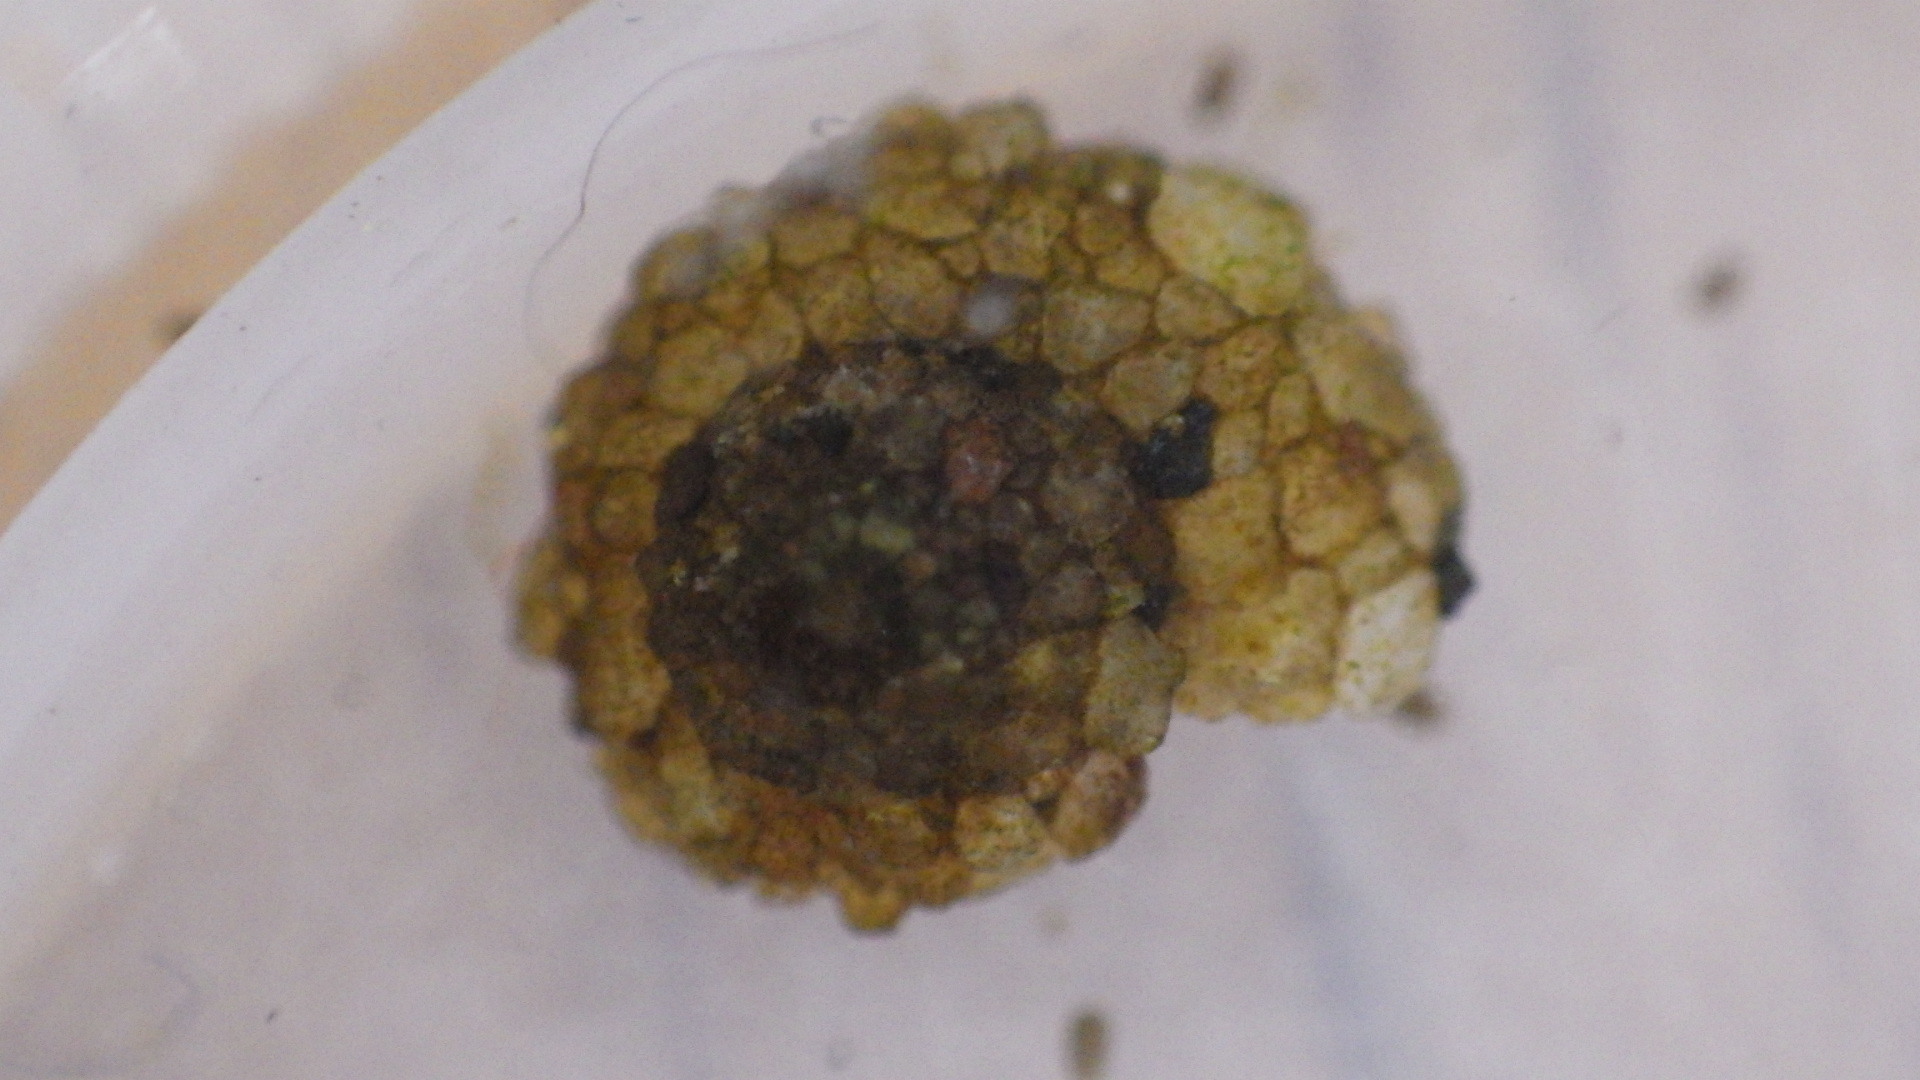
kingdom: Animalia
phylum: Arthropoda
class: Insecta
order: Trichoptera
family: Helicopsychidae
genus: Helicopsyche
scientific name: Helicopsyche borealis
